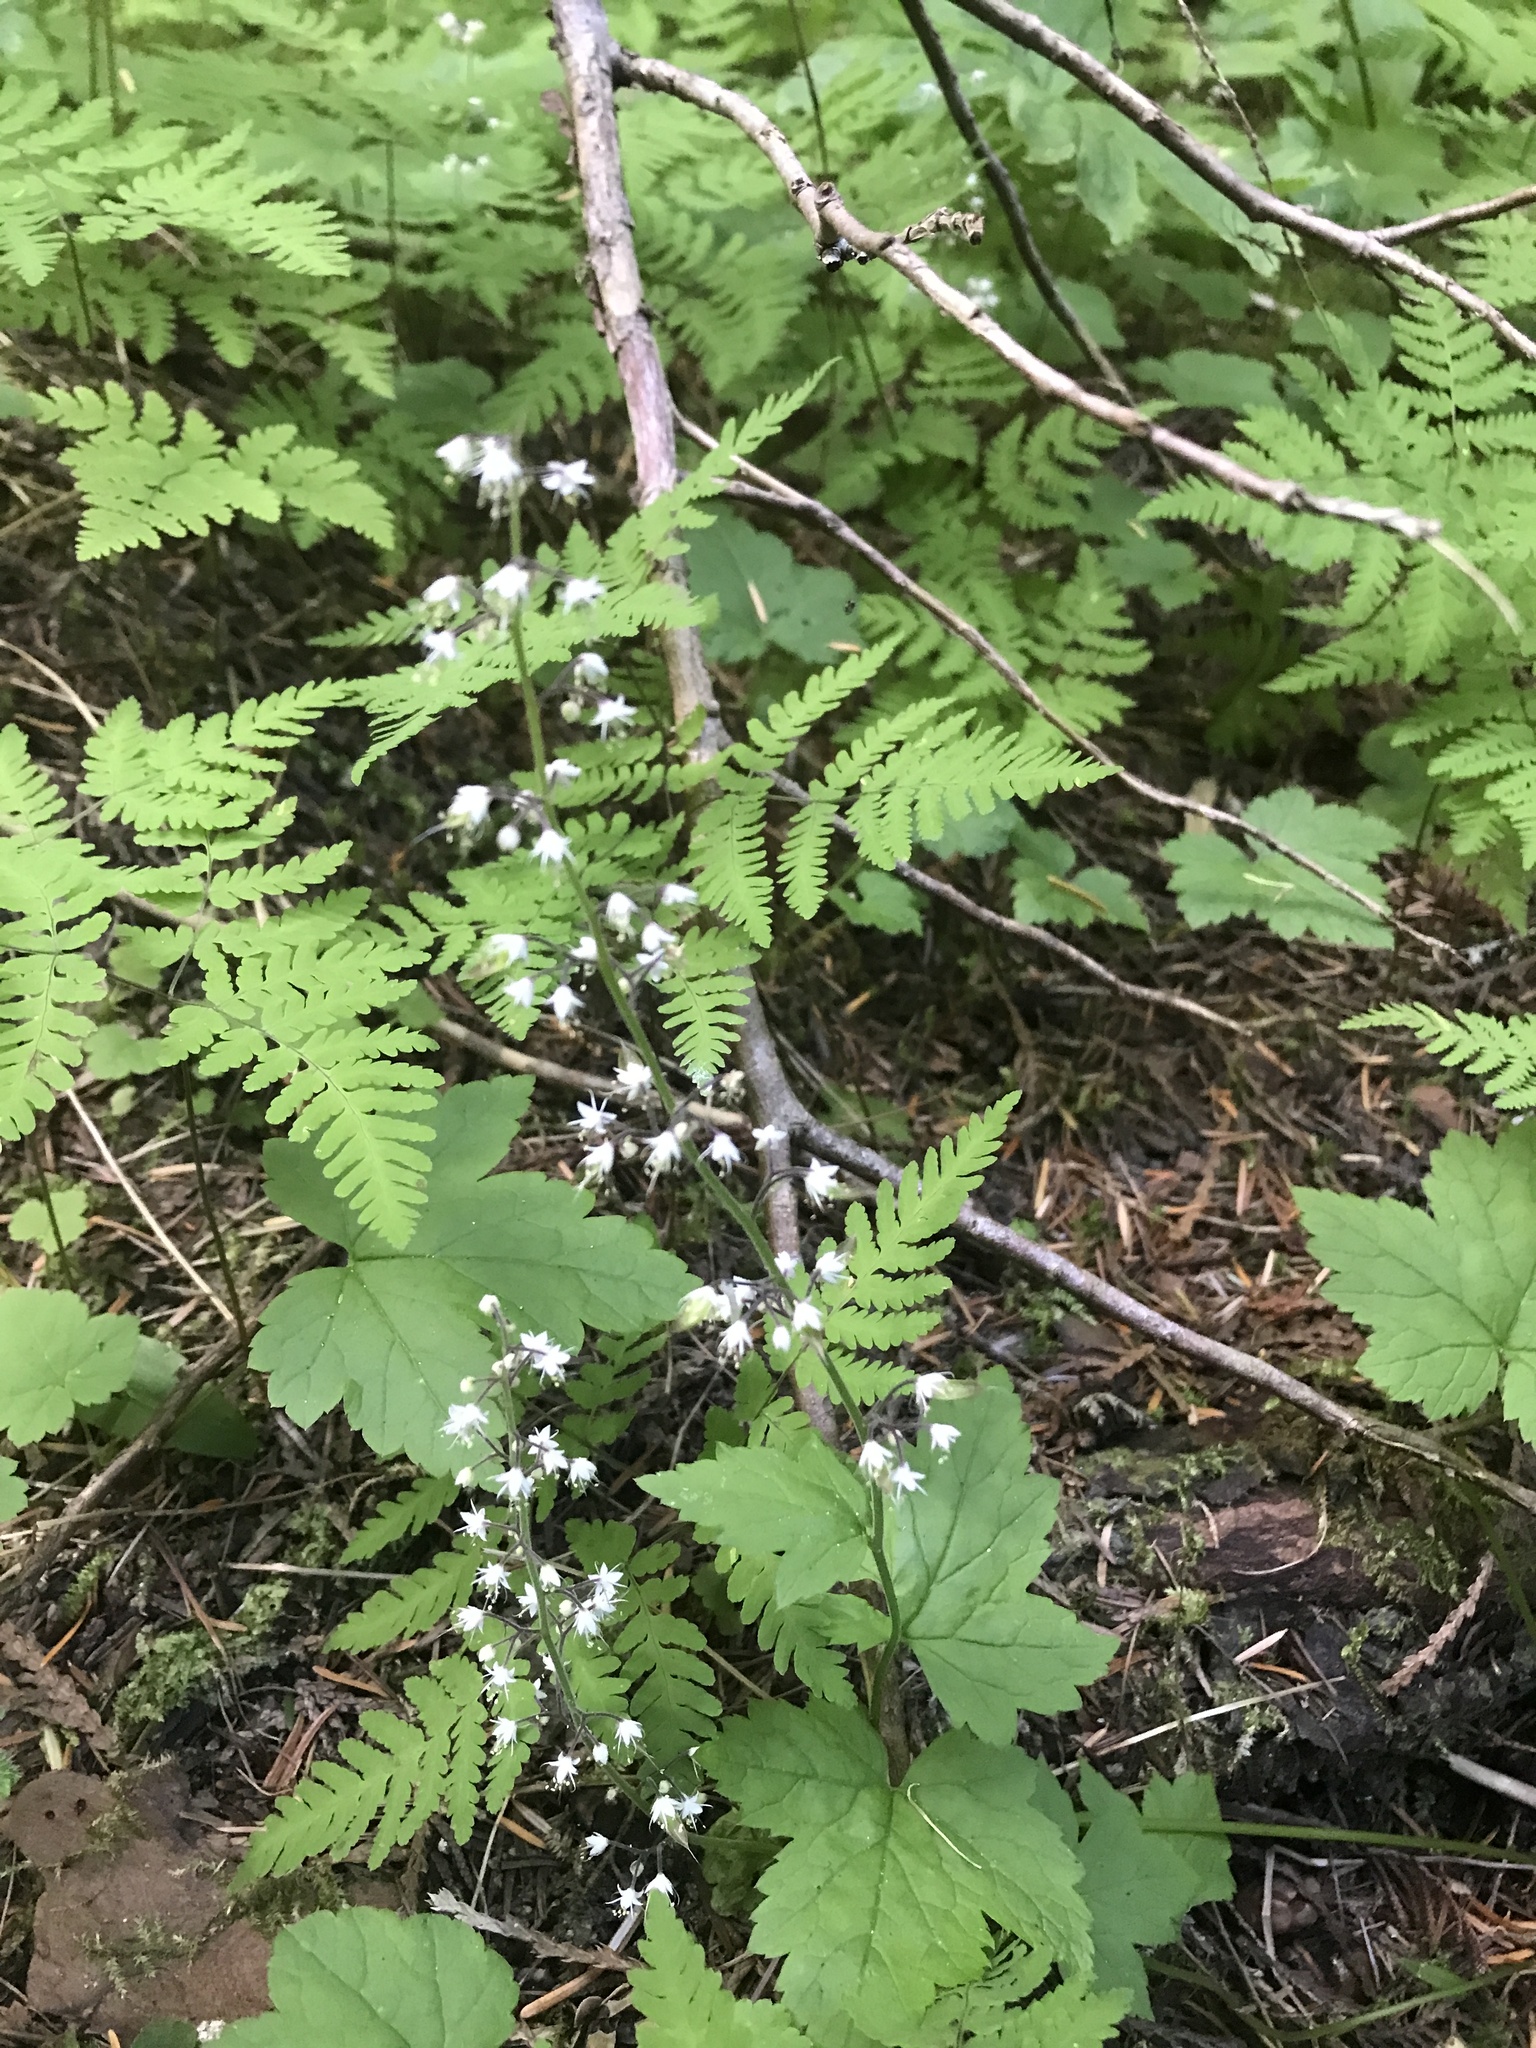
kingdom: Plantae
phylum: Tracheophyta
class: Magnoliopsida
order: Saxifragales
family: Saxifragaceae
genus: Tiarella
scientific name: Tiarella trifoliata
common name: Sugar-scoop
